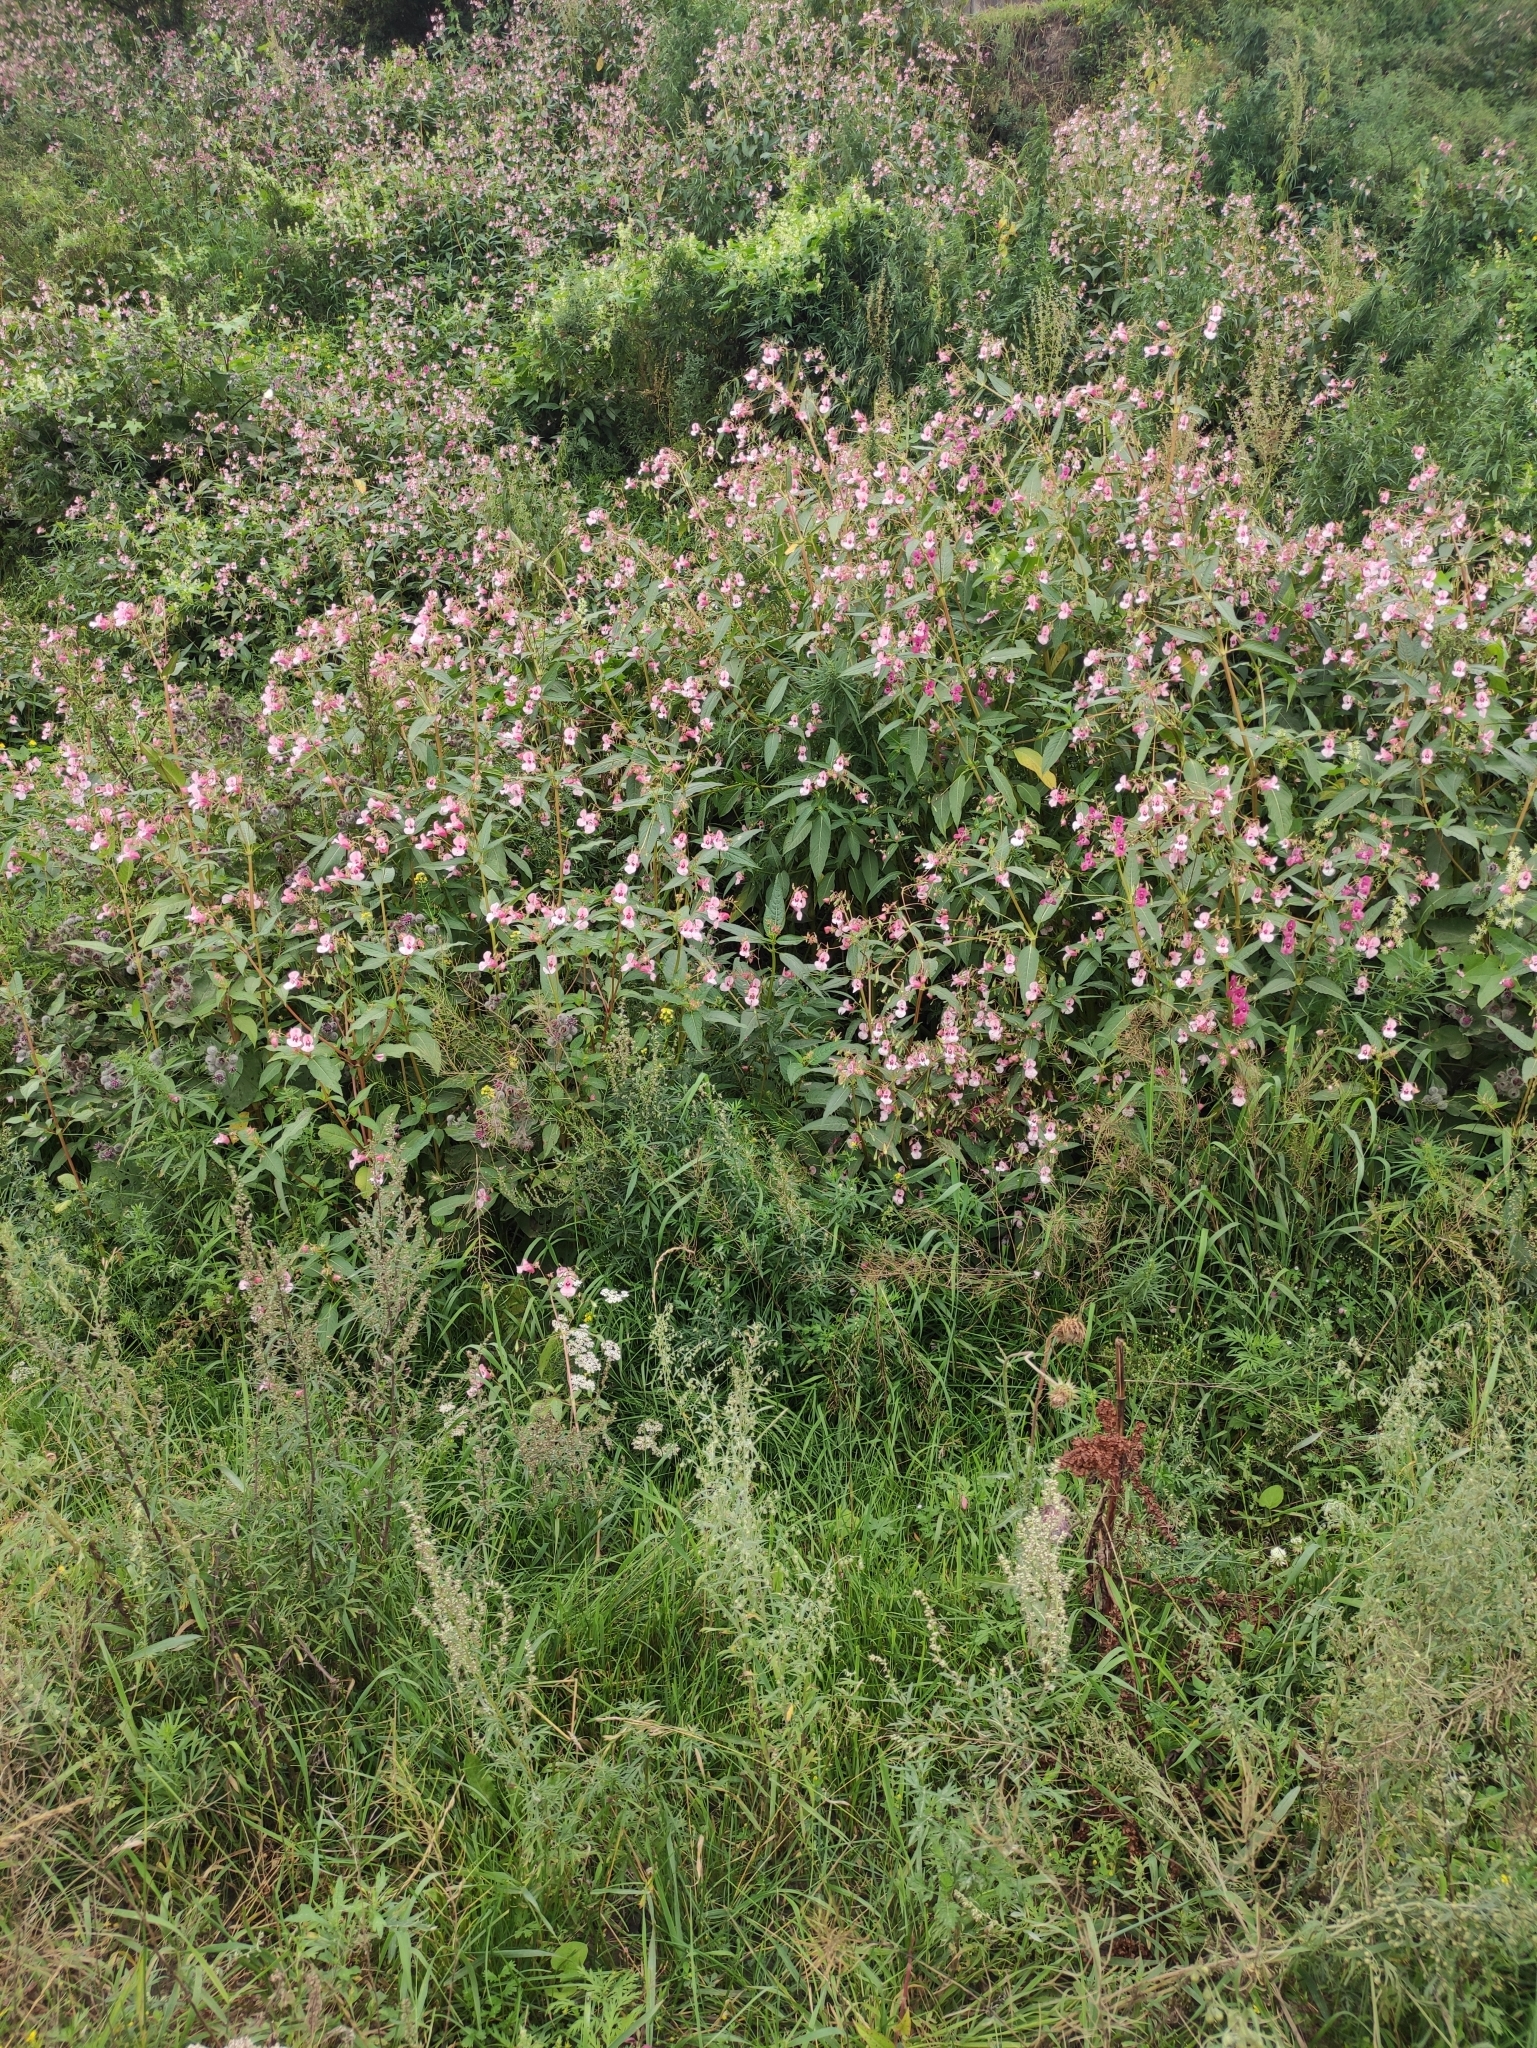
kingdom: Plantae
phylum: Tracheophyta
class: Magnoliopsida
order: Ericales
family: Balsaminaceae
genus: Impatiens
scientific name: Impatiens glandulifera
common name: Himalayan balsam
